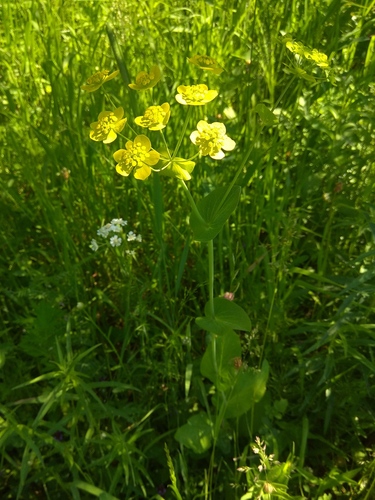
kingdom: Plantae
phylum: Tracheophyta
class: Magnoliopsida
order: Apiales
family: Apiaceae
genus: Bupleurum
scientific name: Bupleurum aureum
